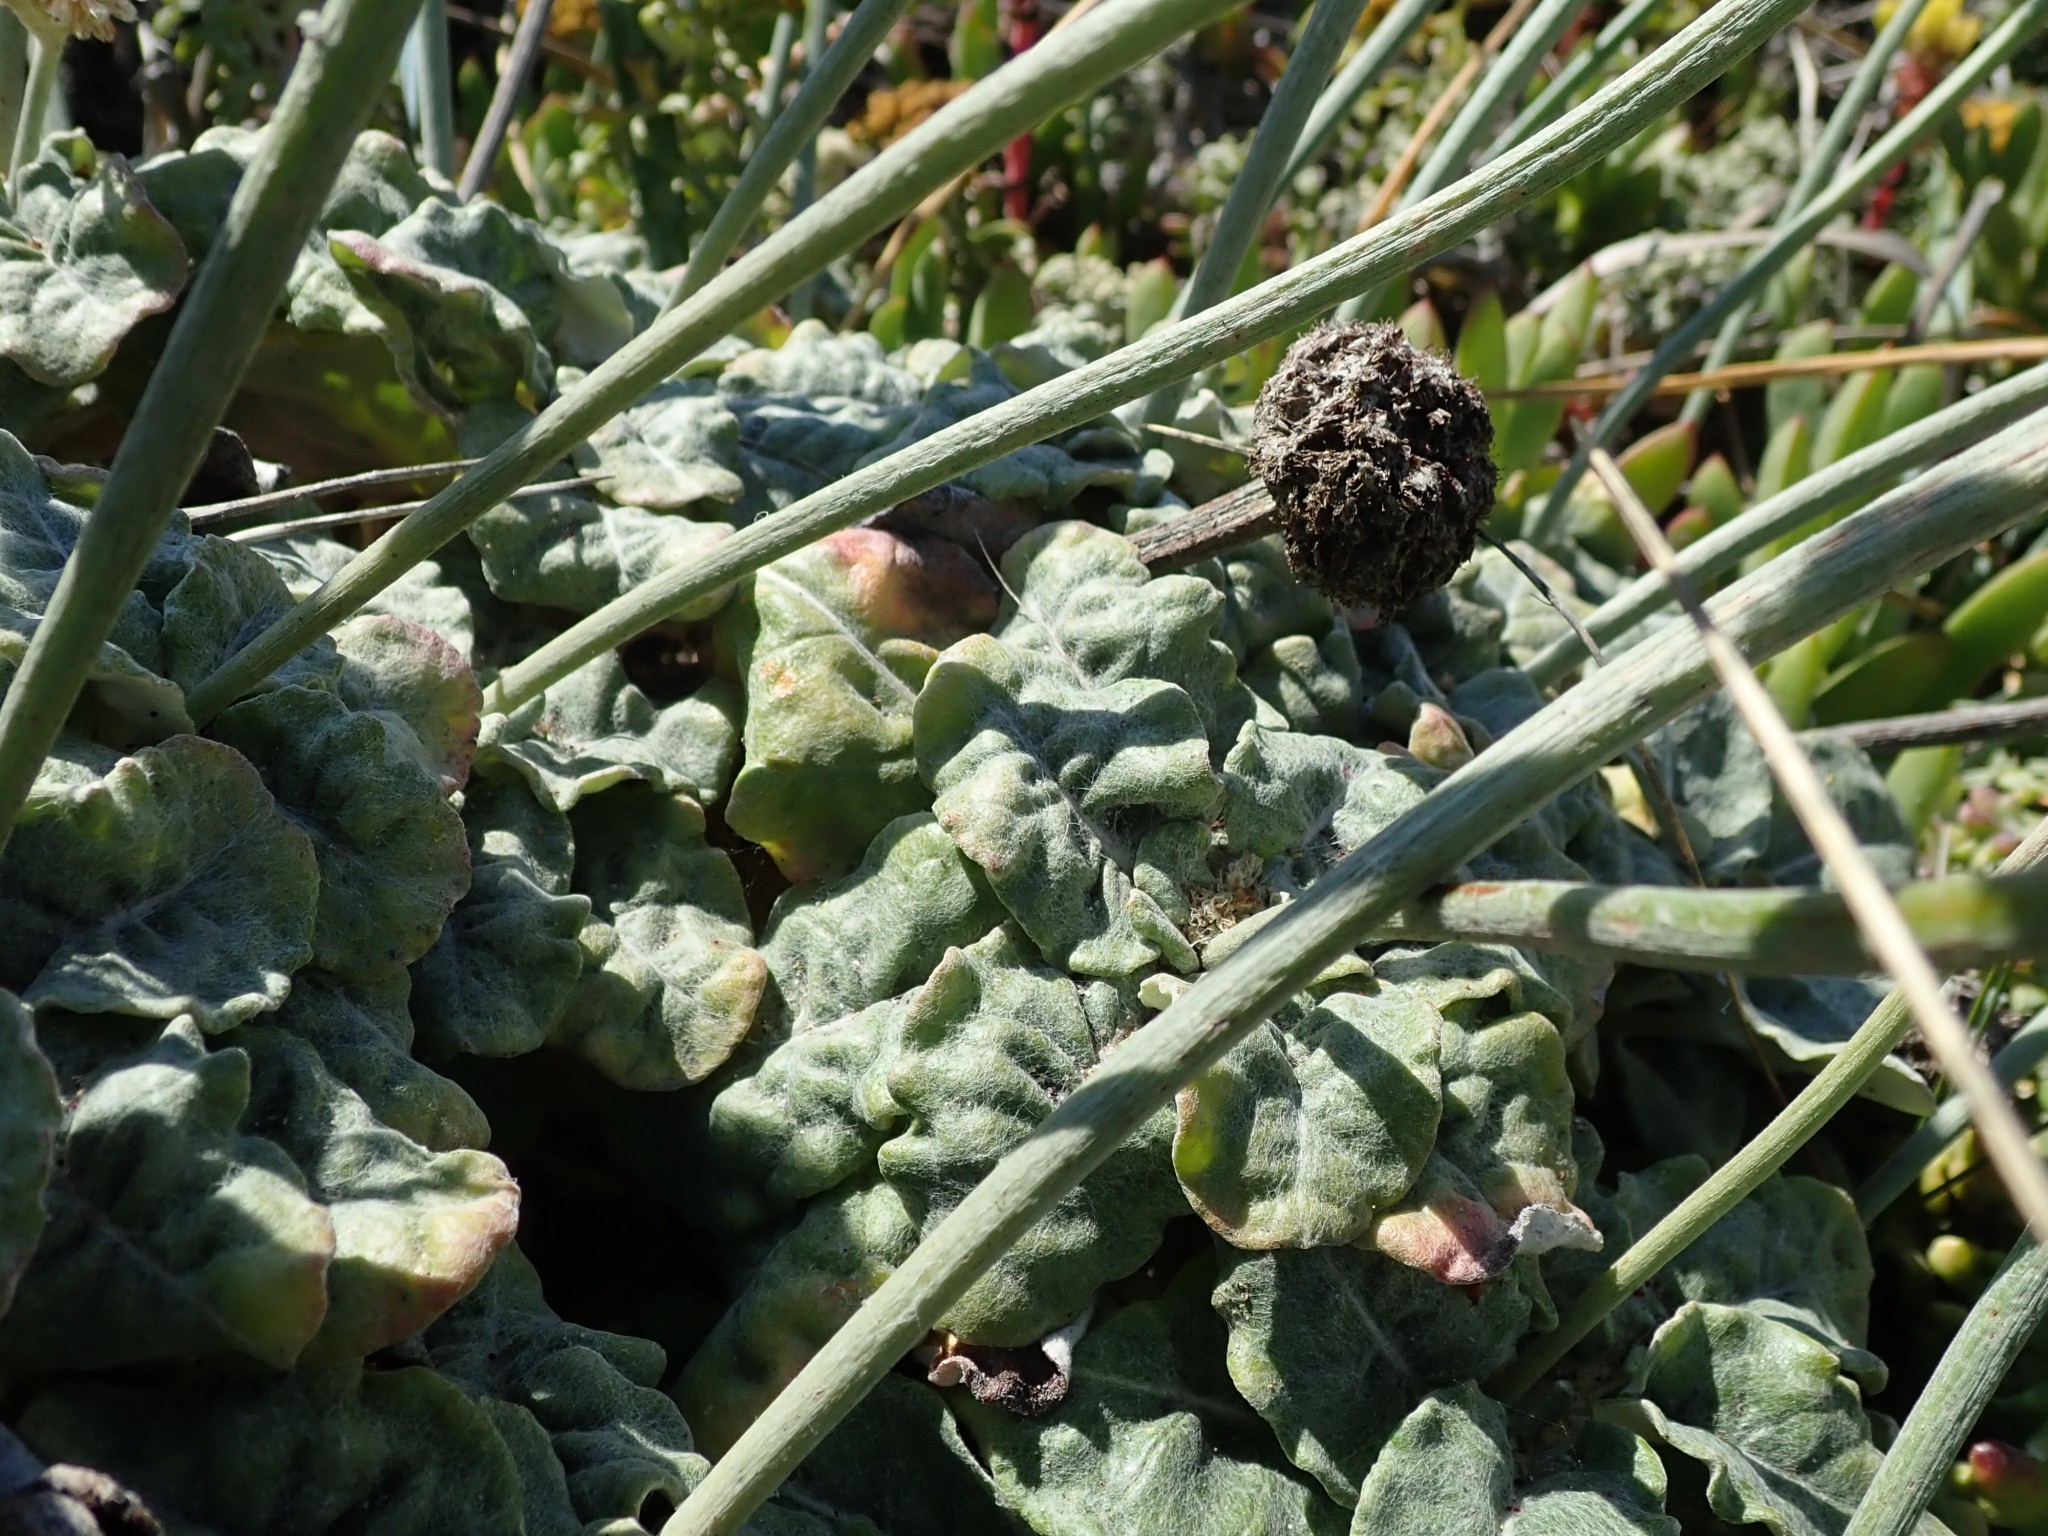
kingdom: Plantae
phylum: Tracheophyta
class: Magnoliopsida
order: Caryophyllales
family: Polygonaceae
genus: Eriogonum
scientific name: Eriogonum latifolium
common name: Seaside wild buckwheat
